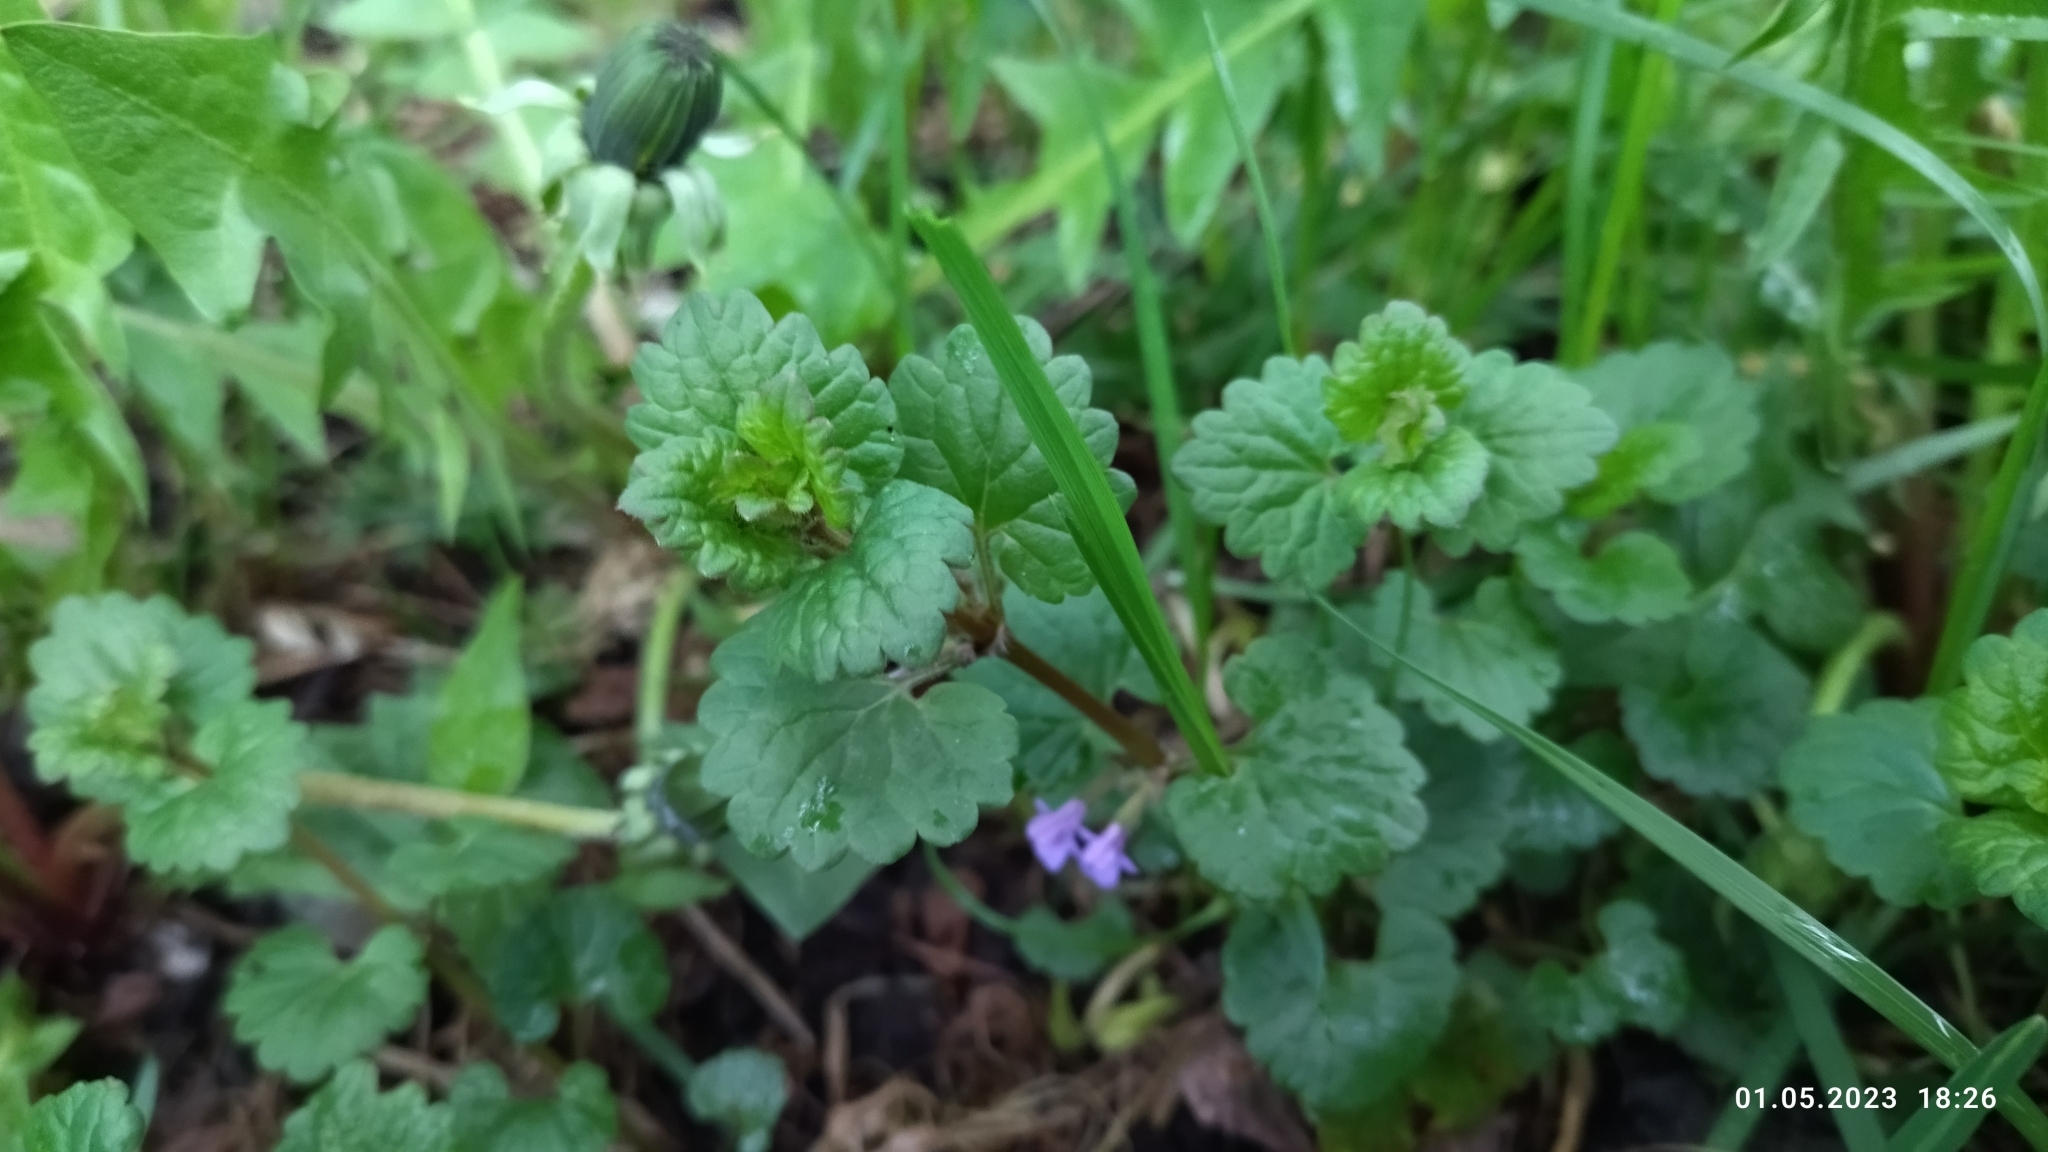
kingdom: Plantae
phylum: Tracheophyta
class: Magnoliopsida
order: Lamiales
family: Lamiaceae
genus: Glechoma
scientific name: Glechoma hederacea
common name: Ground ivy
